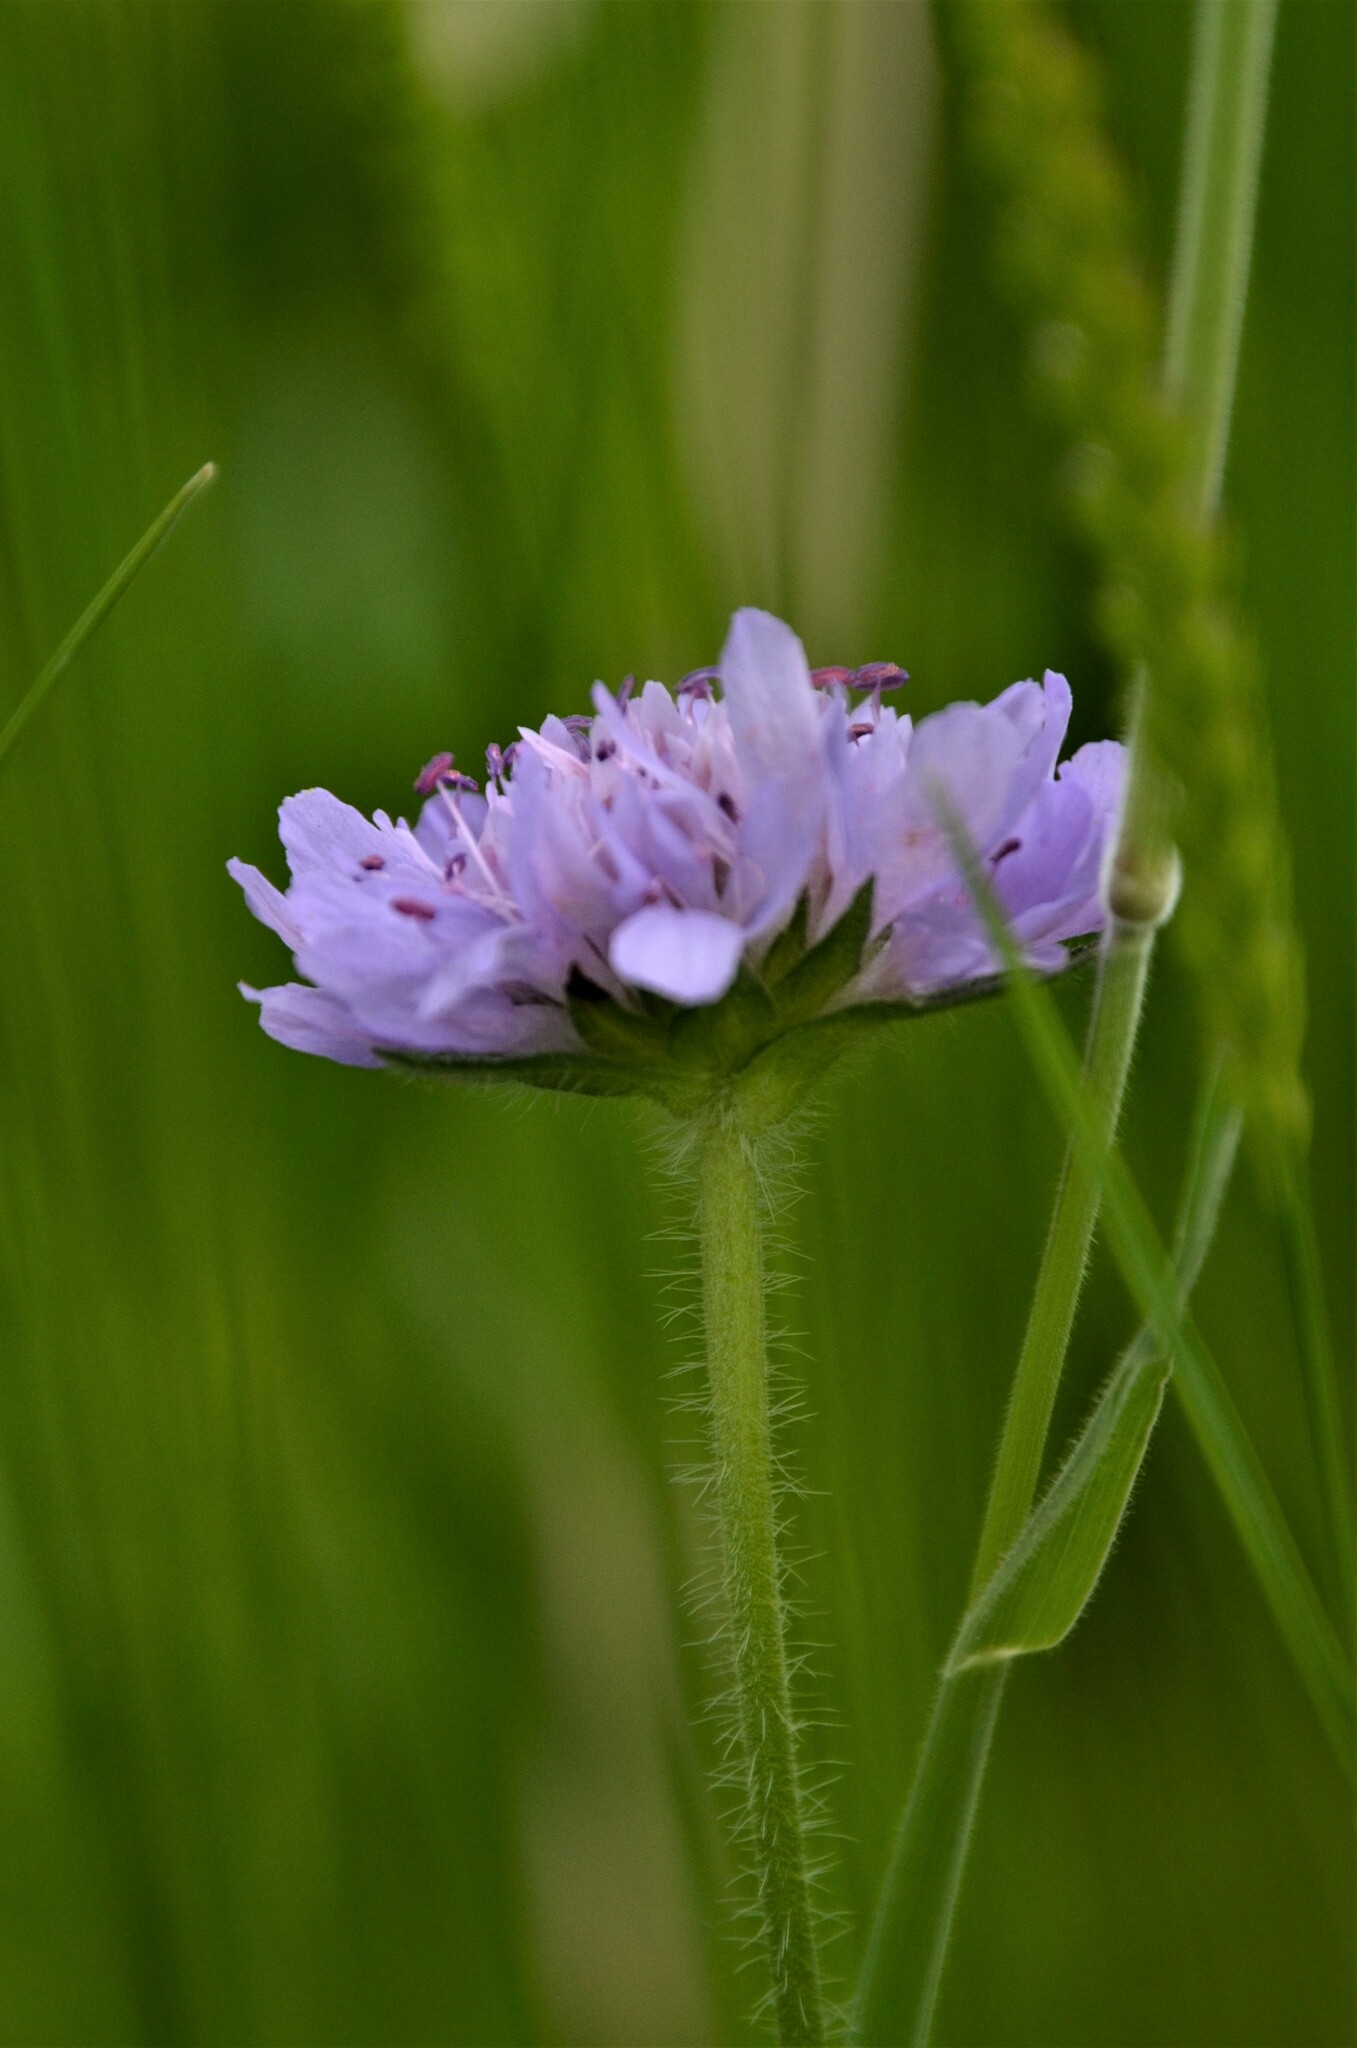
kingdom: Plantae
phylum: Tracheophyta
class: Magnoliopsida
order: Dipsacales
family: Caprifoliaceae
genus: Knautia
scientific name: Knautia arvensis
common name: Field scabiosa
